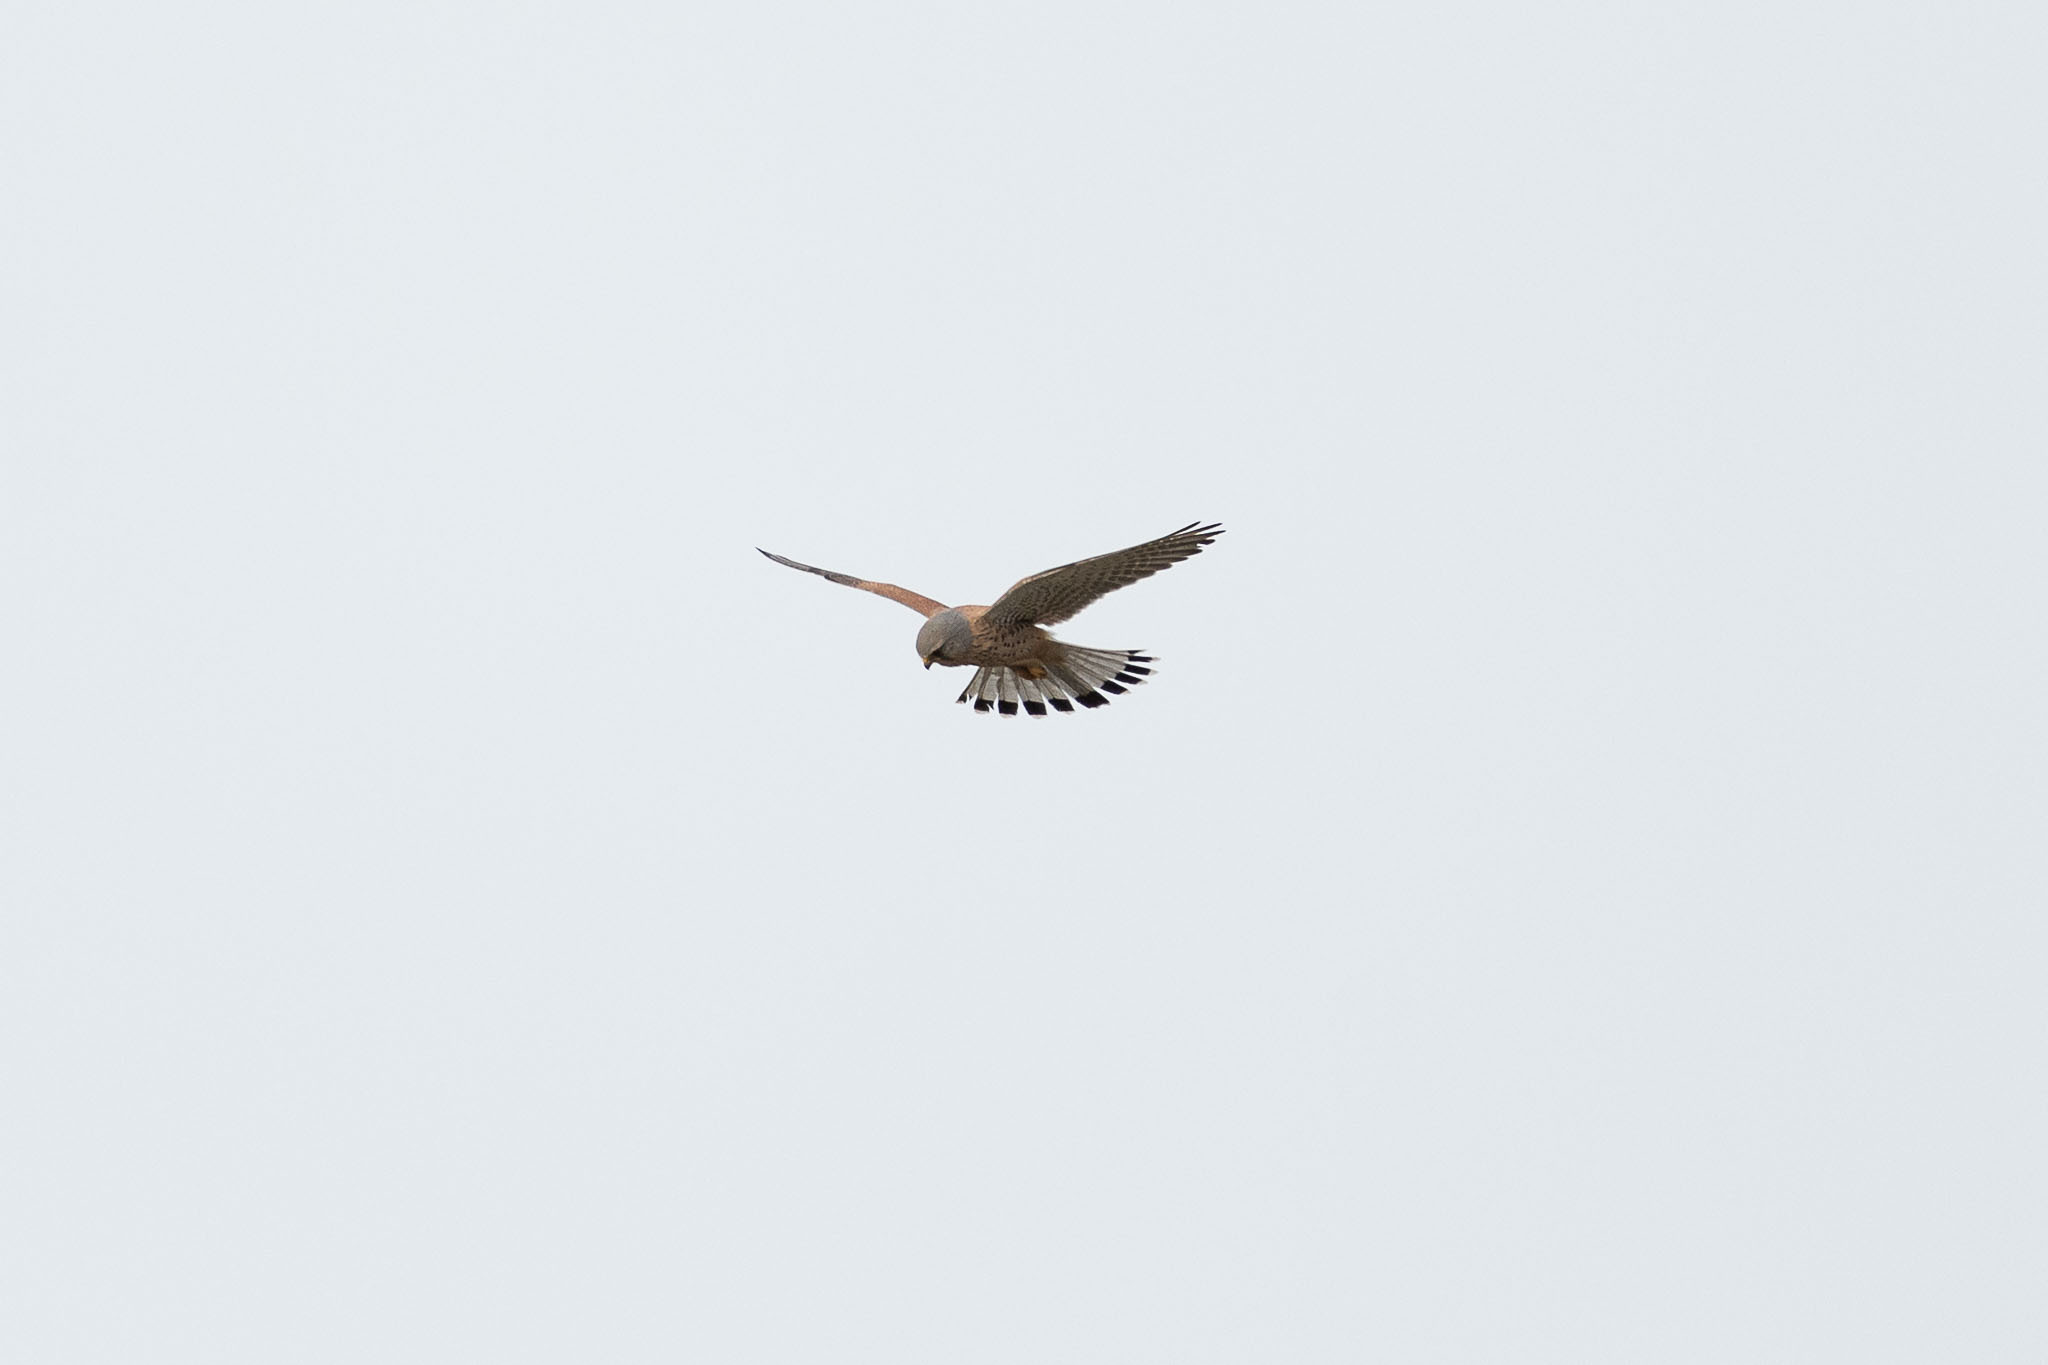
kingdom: Animalia
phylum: Chordata
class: Aves
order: Falconiformes
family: Falconidae
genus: Falco
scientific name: Falco tinnunculus
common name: Common kestrel
